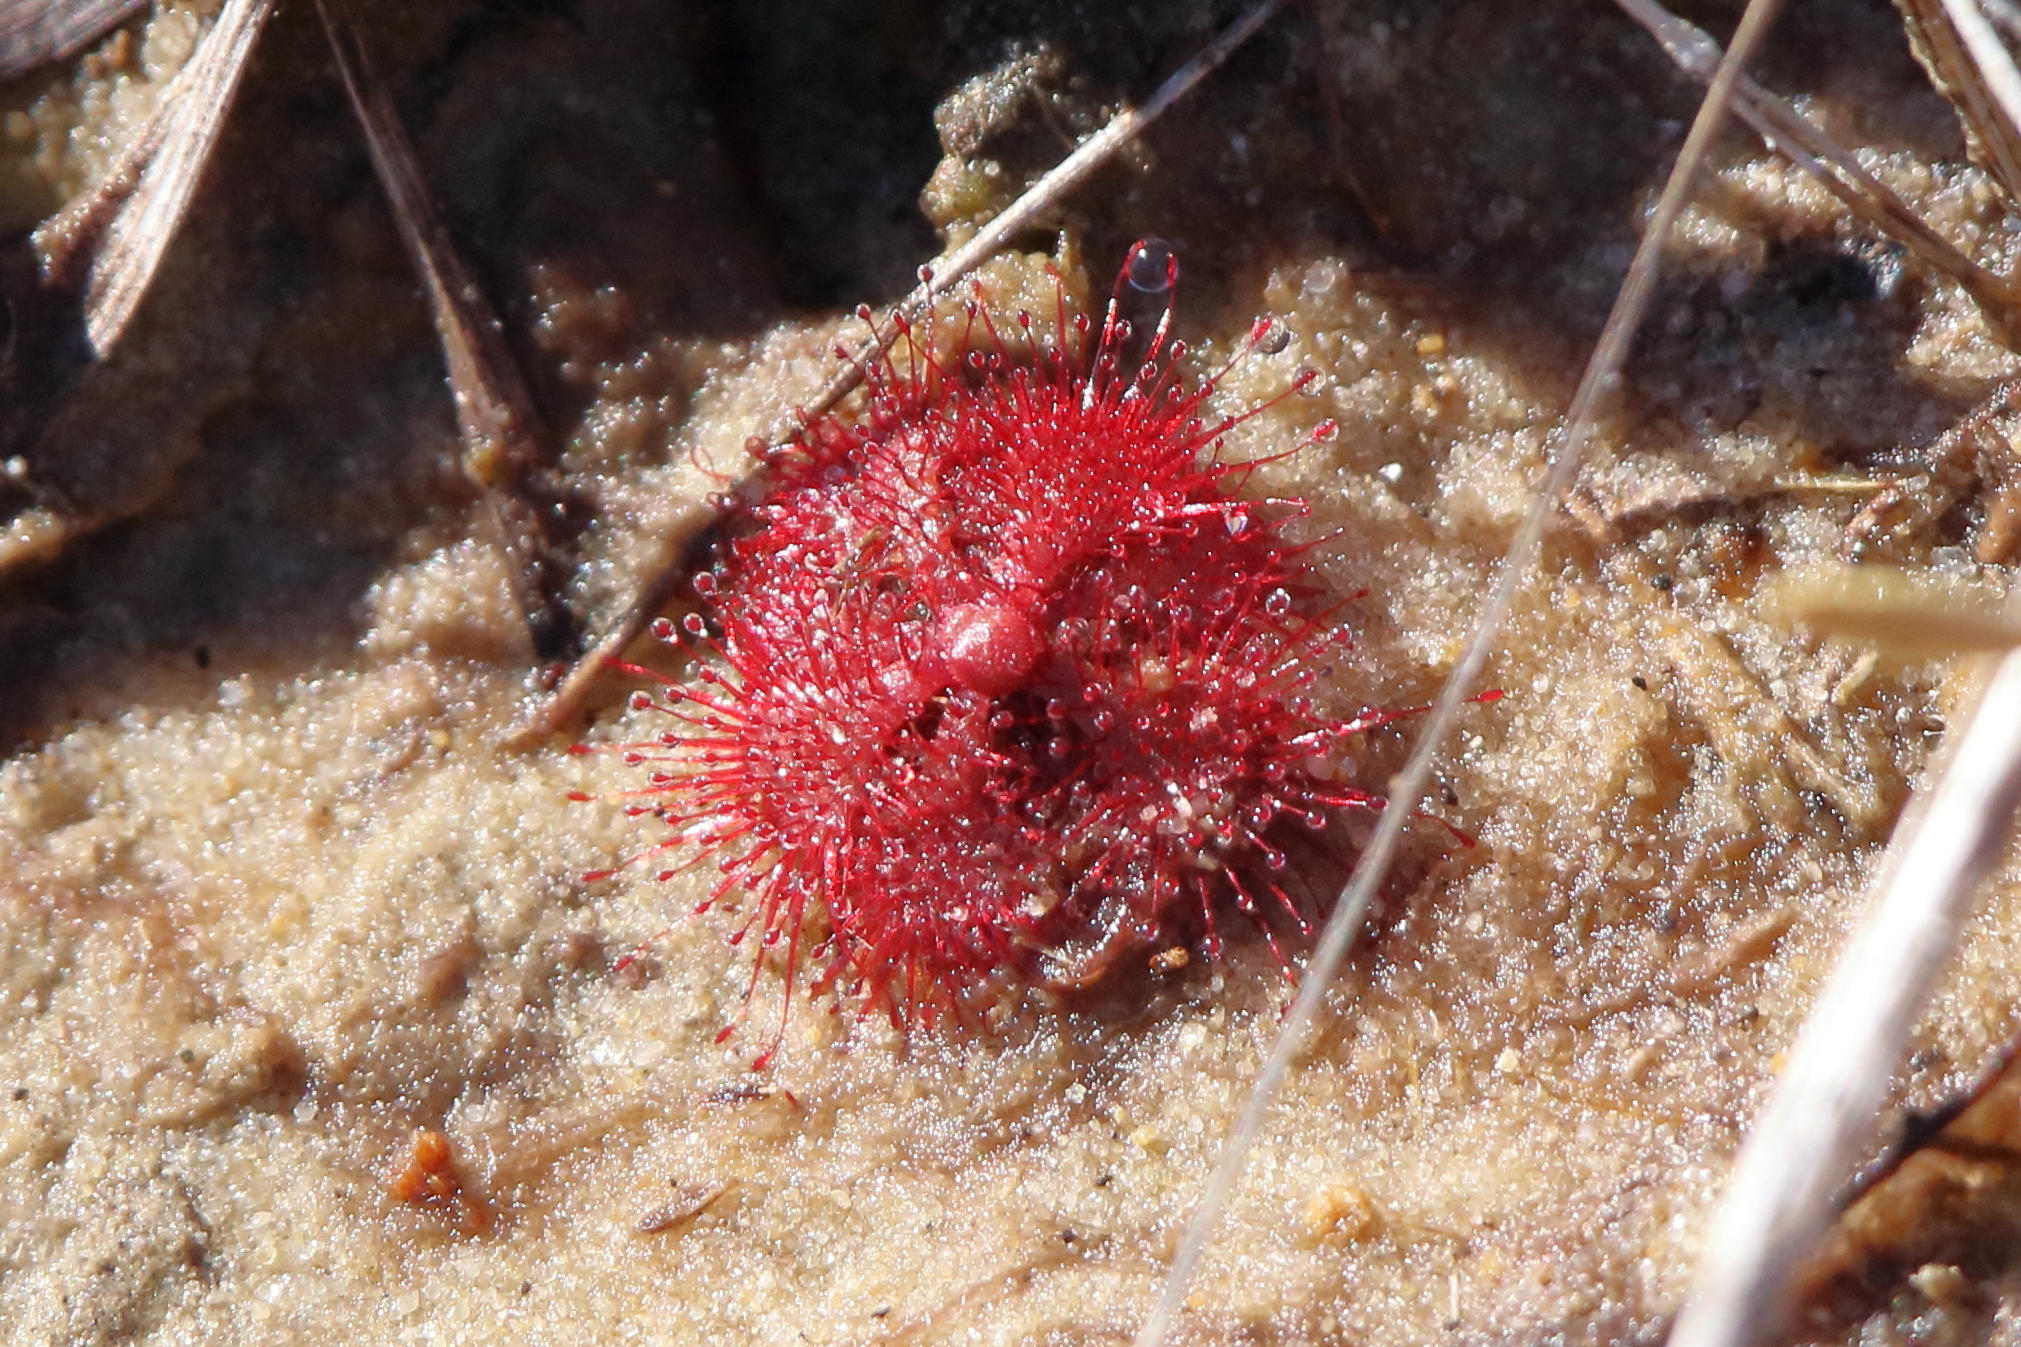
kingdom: Plantae
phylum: Tracheophyta
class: Magnoliopsida
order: Caryophyllales
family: Droseraceae
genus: Drosera
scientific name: Drosera brevifolia
